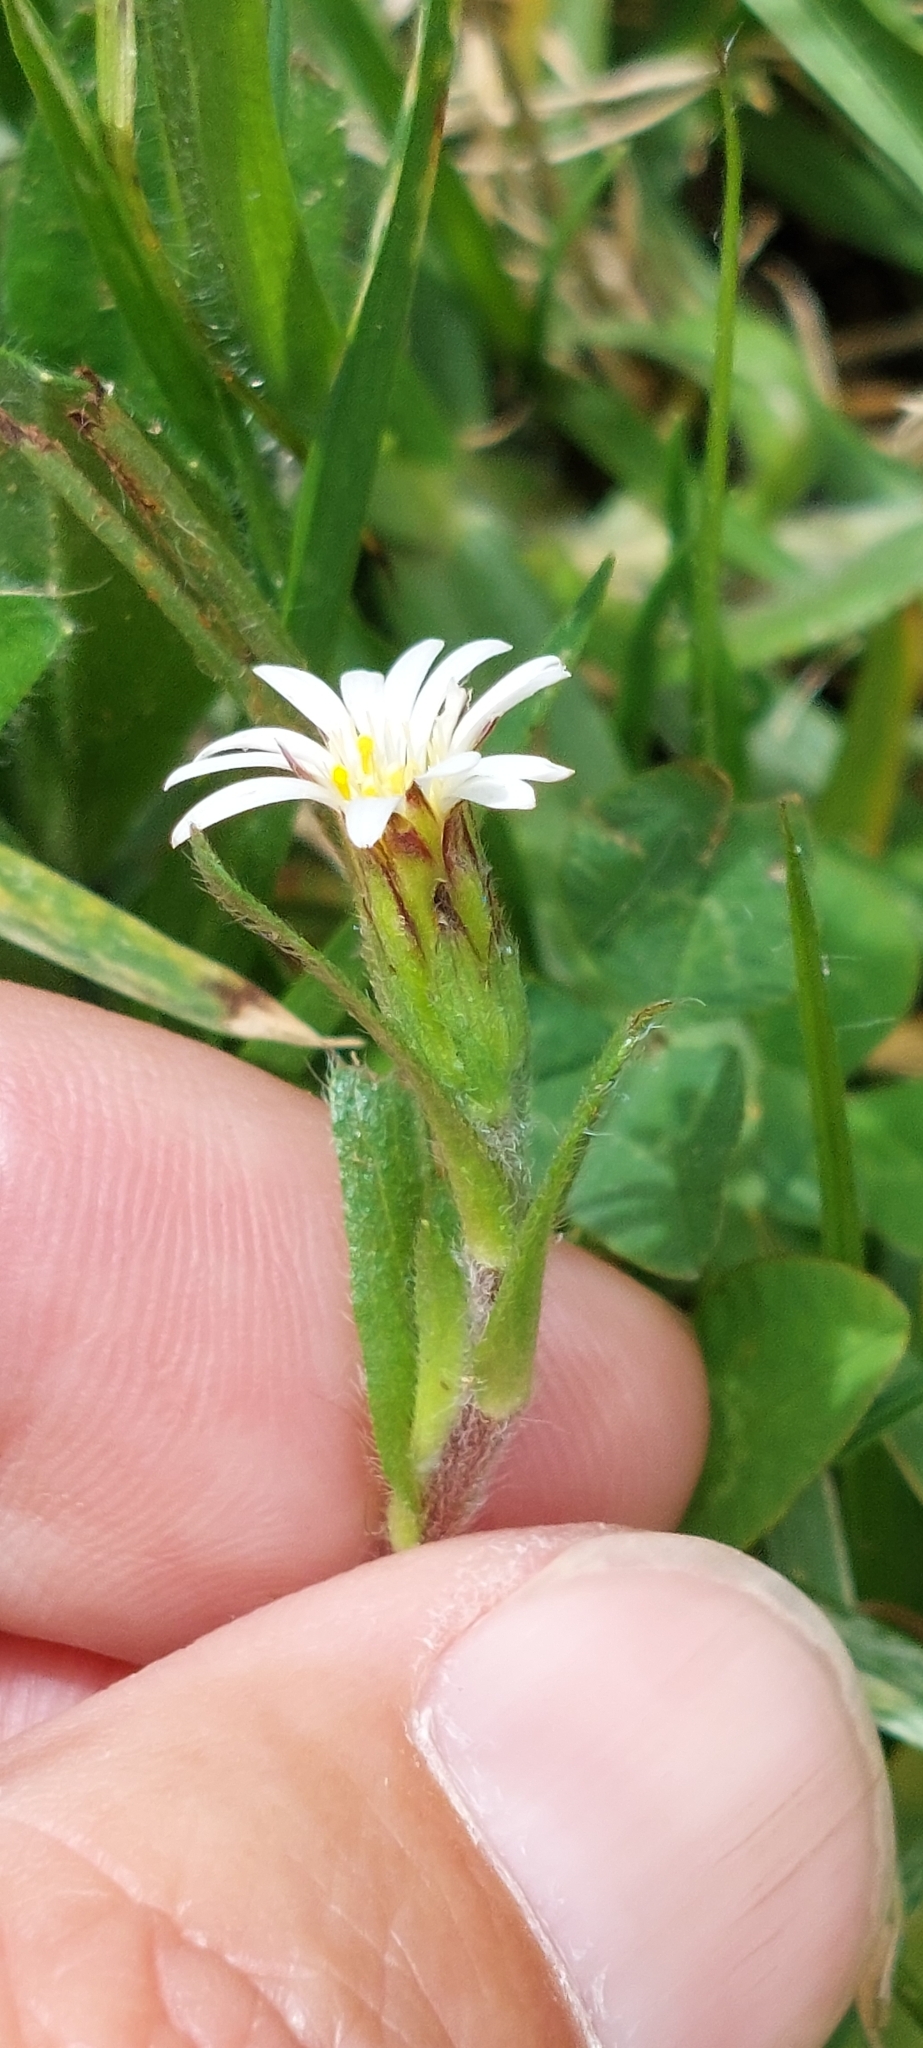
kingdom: Plantae
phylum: Tracheophyta
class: Magnoliopsida
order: Asterales
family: Asteraceae
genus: Noticastrum
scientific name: Noticastrum marginatum
